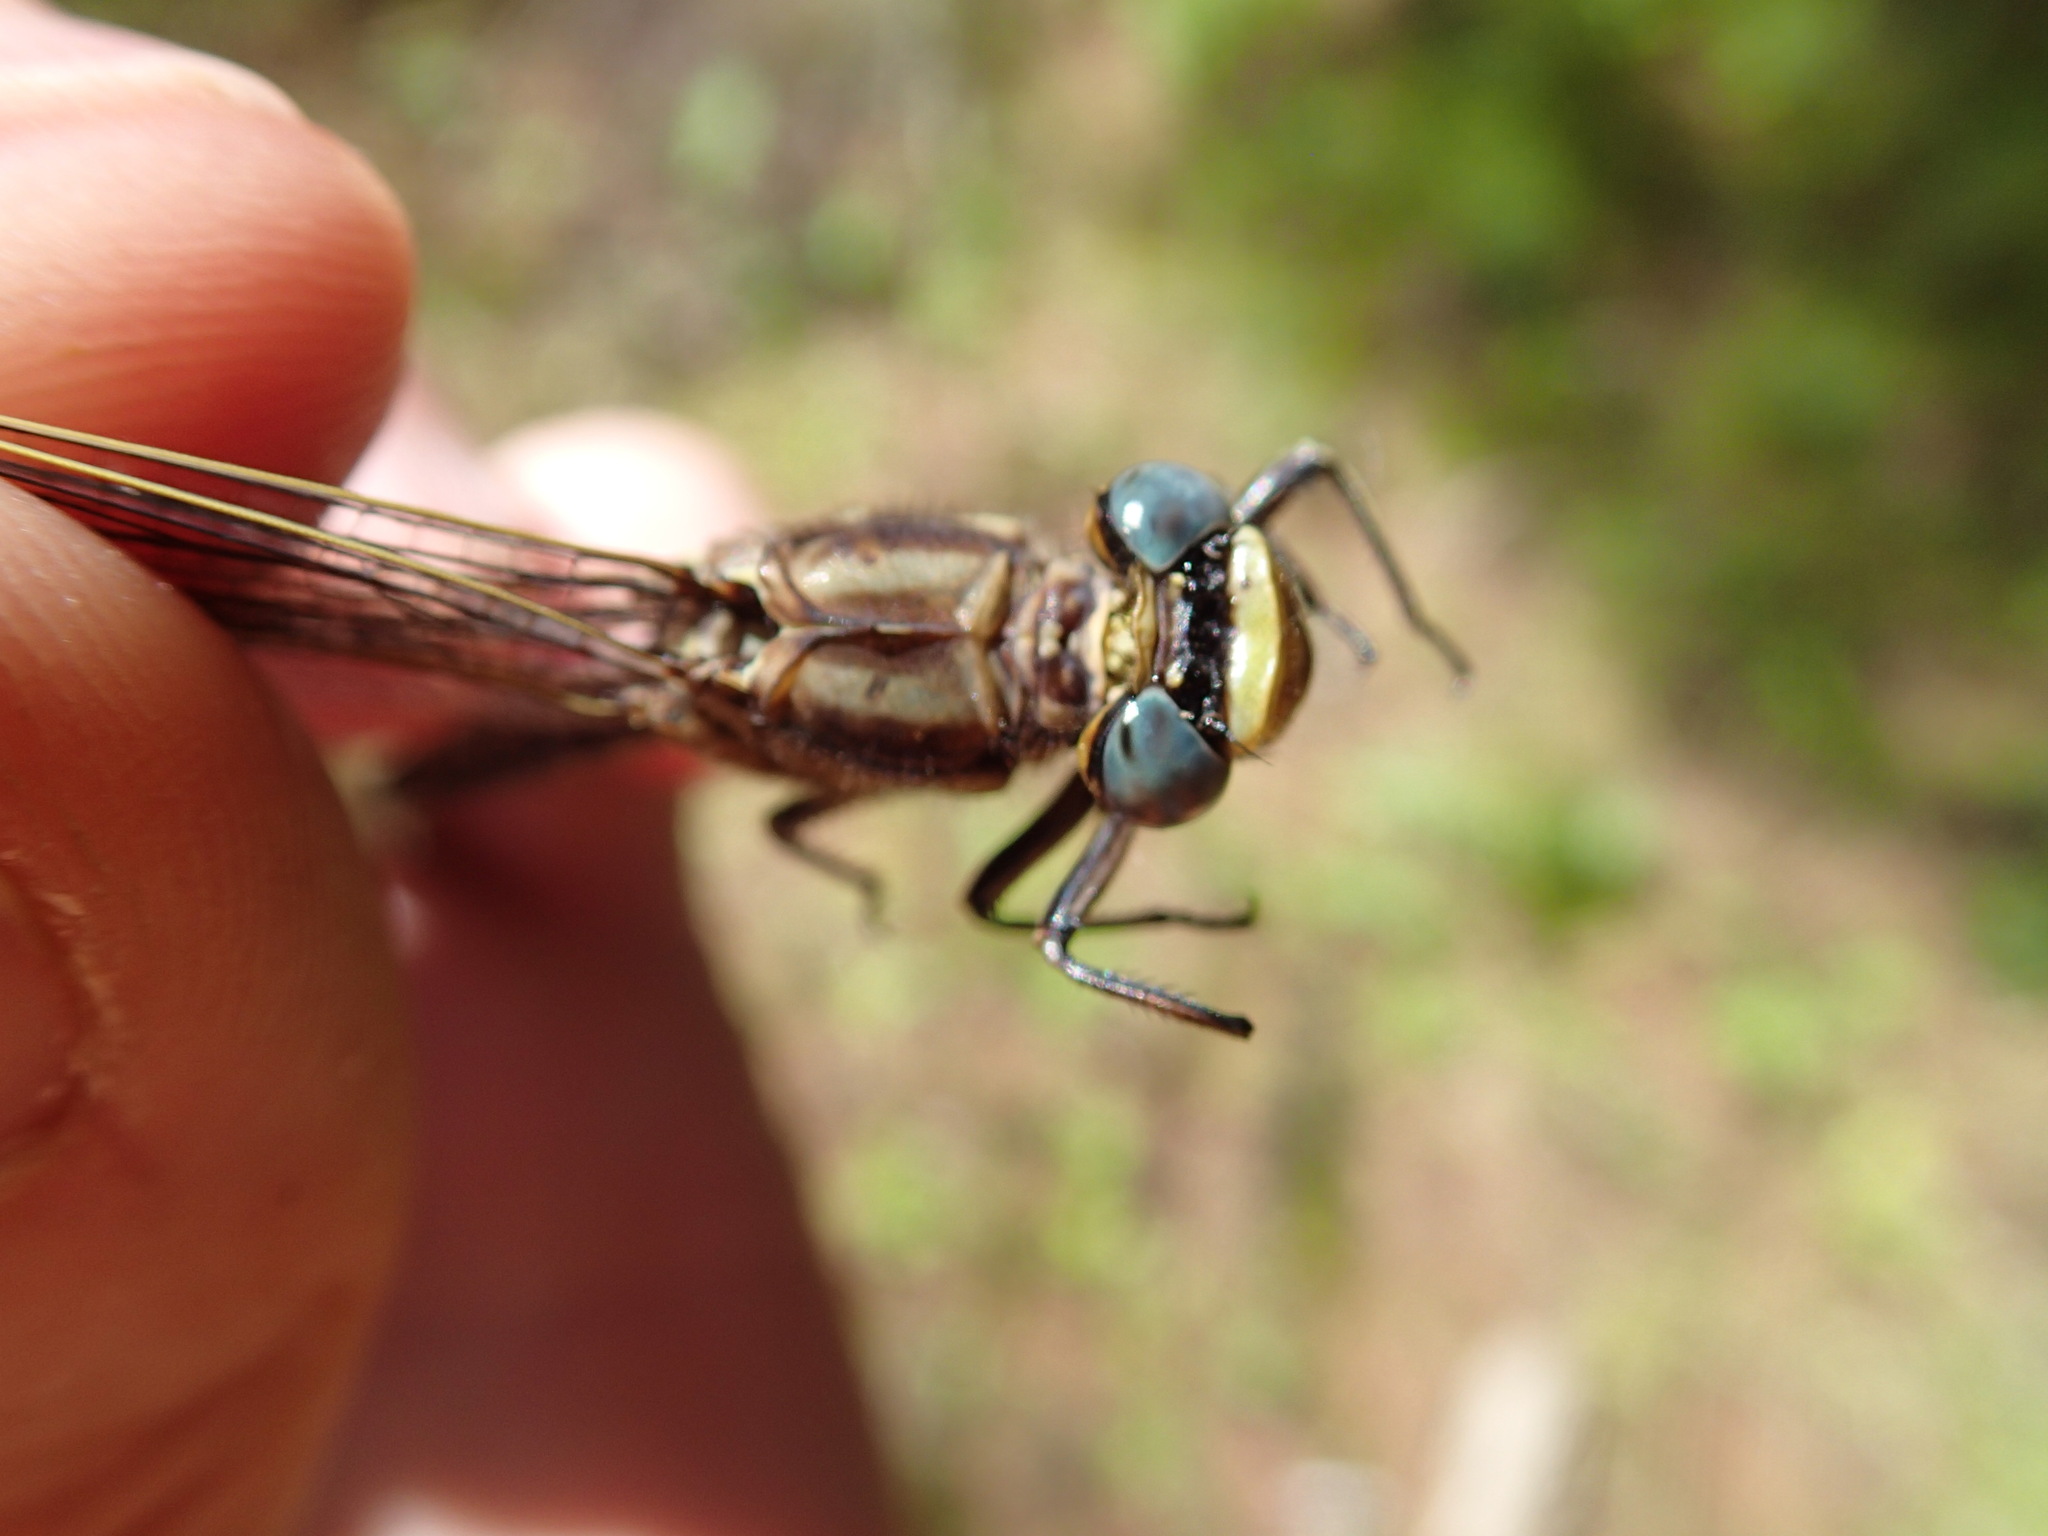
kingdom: Animalia
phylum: Arthropoda
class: Insecta
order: Odonata
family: Gomphidae
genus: Phanogomphus
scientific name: Phanogomphus spicatus
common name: Dusky clubtail
